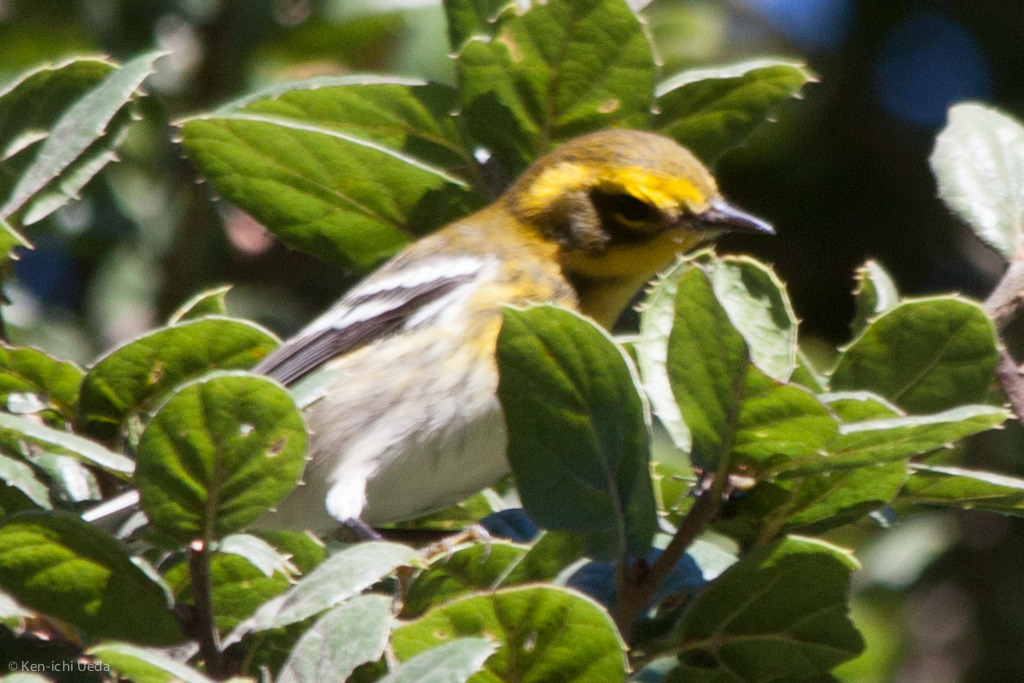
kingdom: Animalia
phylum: Chordata
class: Aves
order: Passeriformes
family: Parulidae
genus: Setophaga
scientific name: Setophaga townsendi
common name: Townsend's warbler
